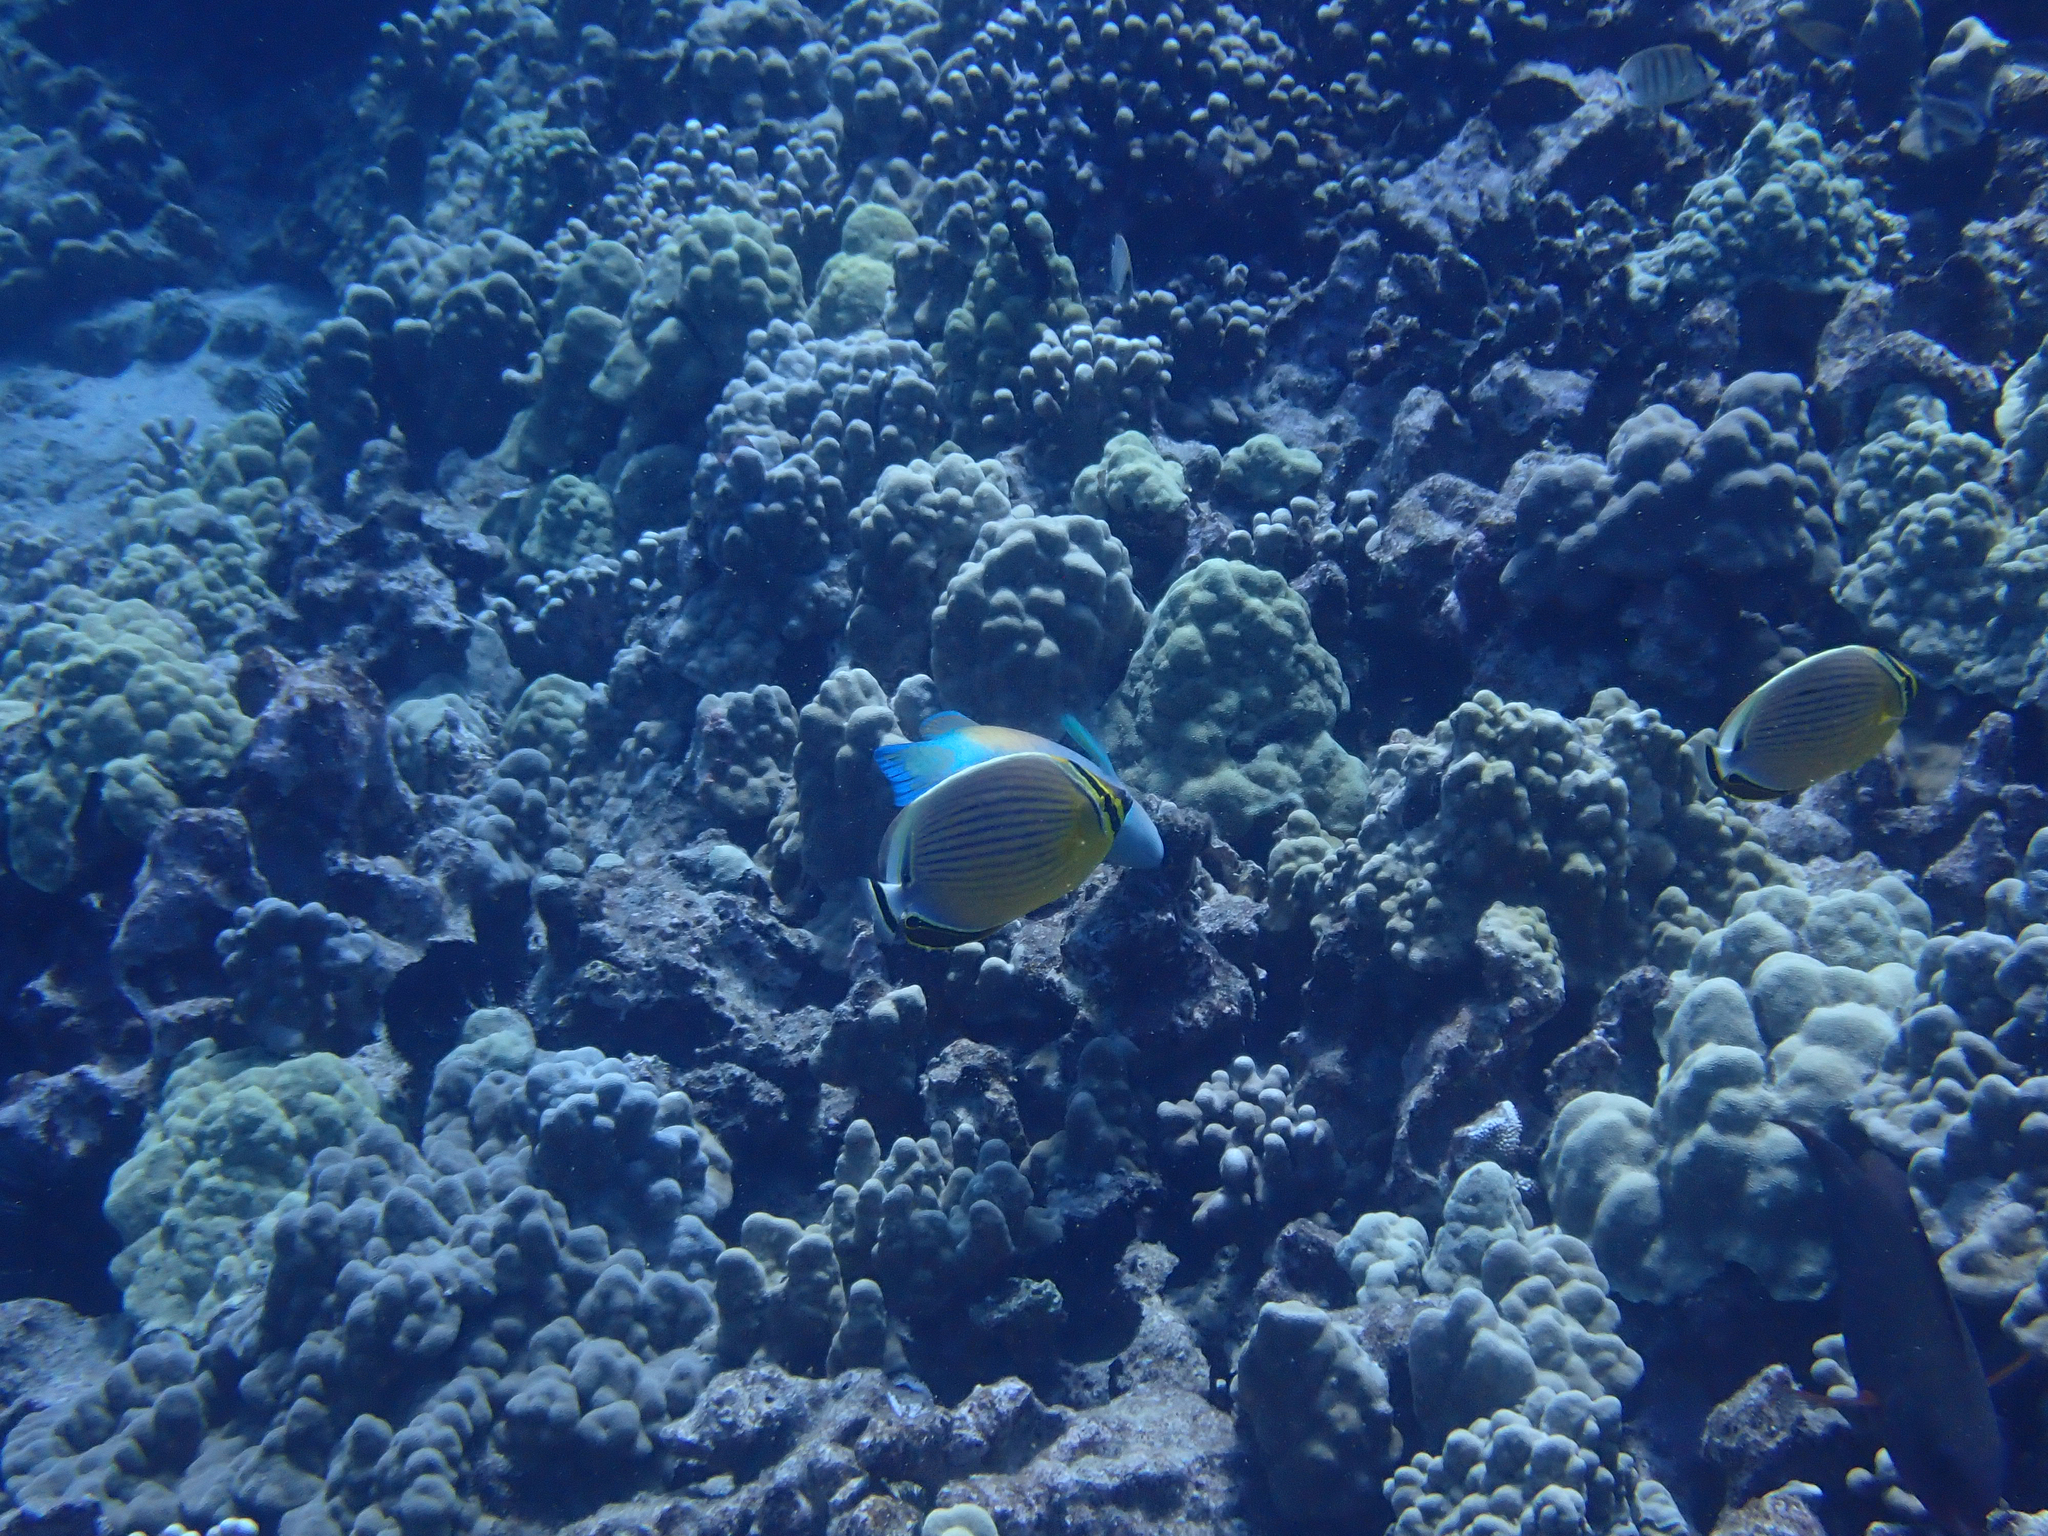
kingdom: Animalia
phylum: Chordata
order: Perciformes
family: Chaetodontidae
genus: Chaetodon
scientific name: Chaetodon lunulatus
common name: Redfin butterflyfish
